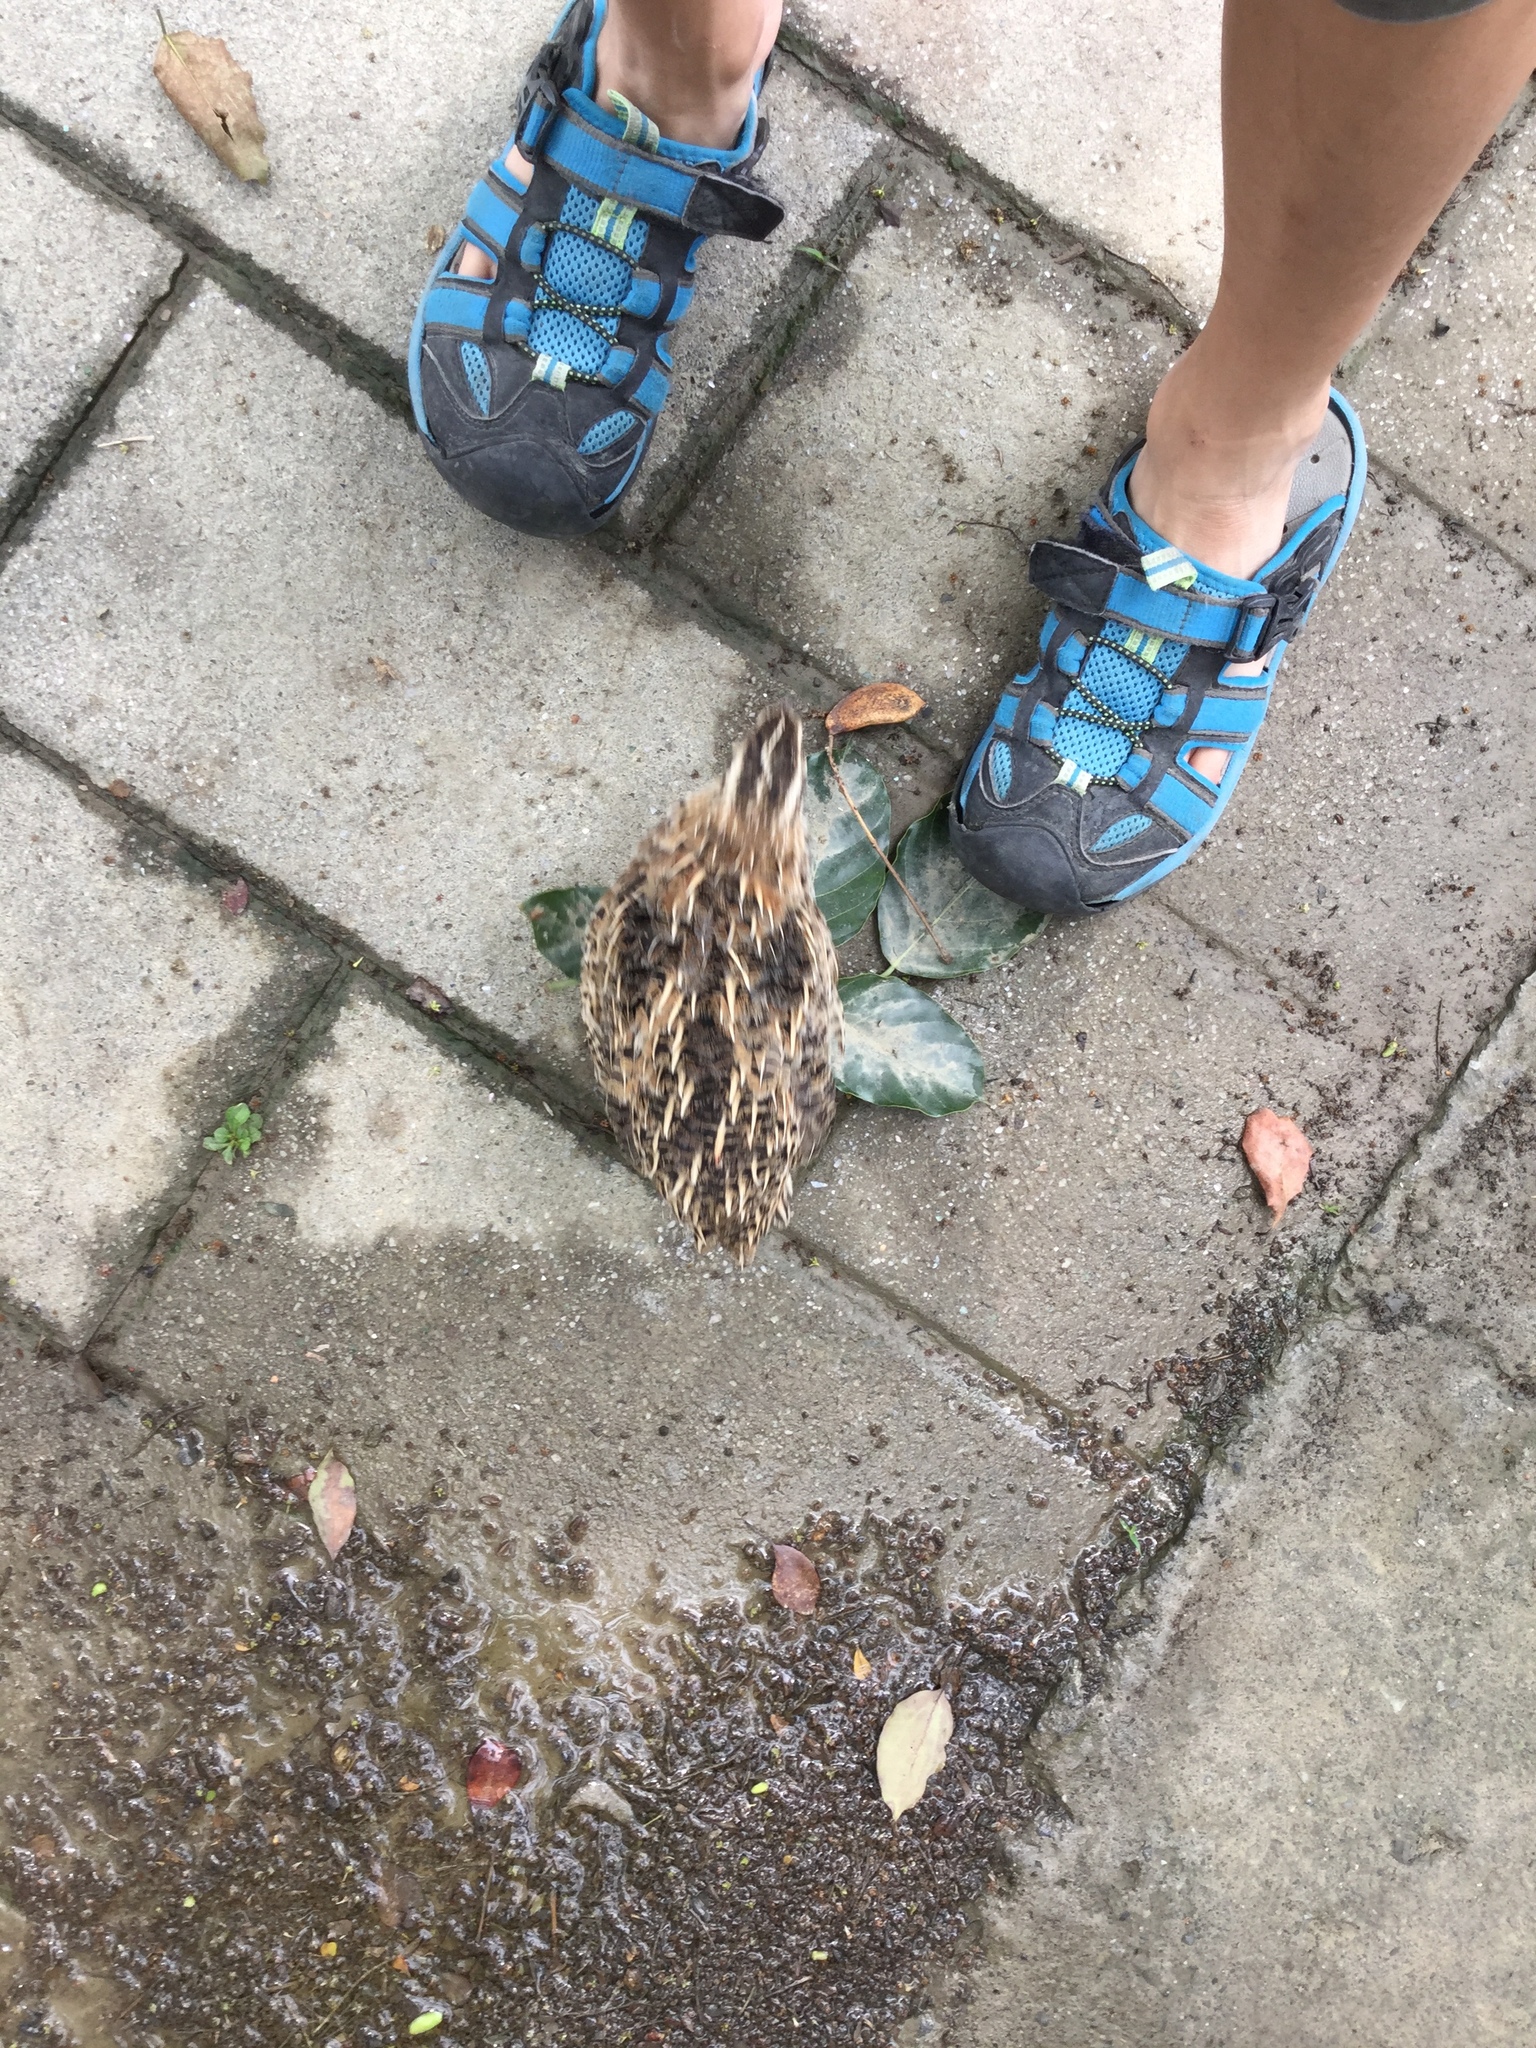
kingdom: Animalia
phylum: Chordata
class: Aves
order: Galliformes
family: Phasianidae
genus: Coturnix
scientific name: Coturnix japonica
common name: Japanese quail
